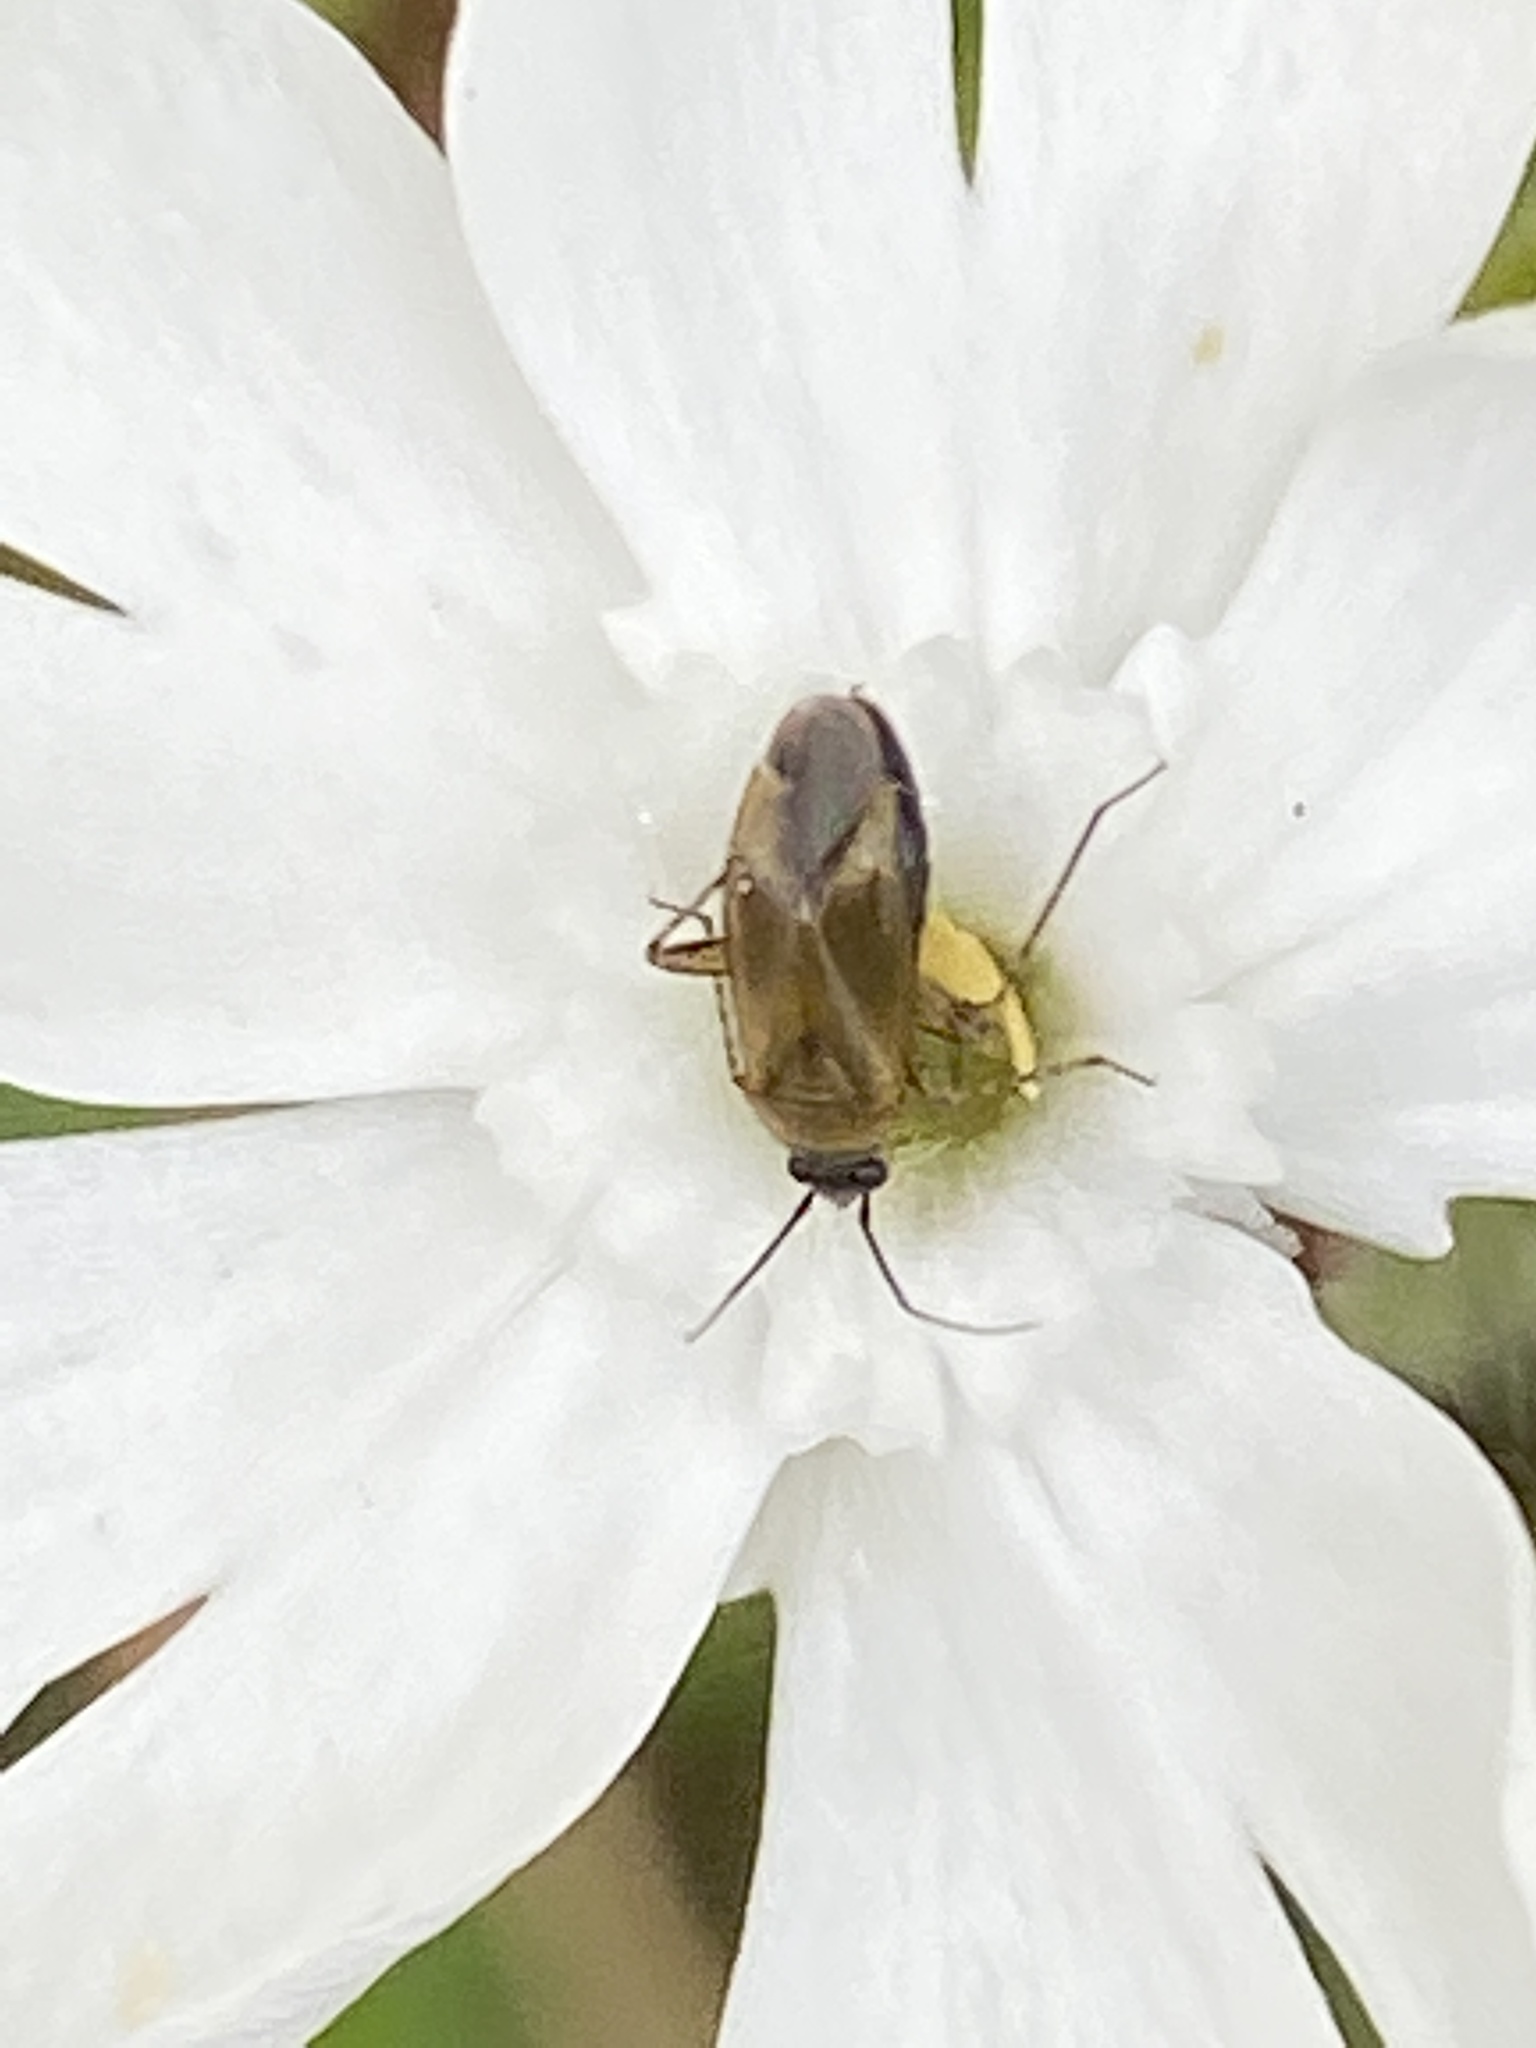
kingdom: Animalia
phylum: Arthropoda
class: Insecta
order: Hemiptera
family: Miridae
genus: Plagiognathus
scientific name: Plagiognathus arbustorum
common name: Plant bug
